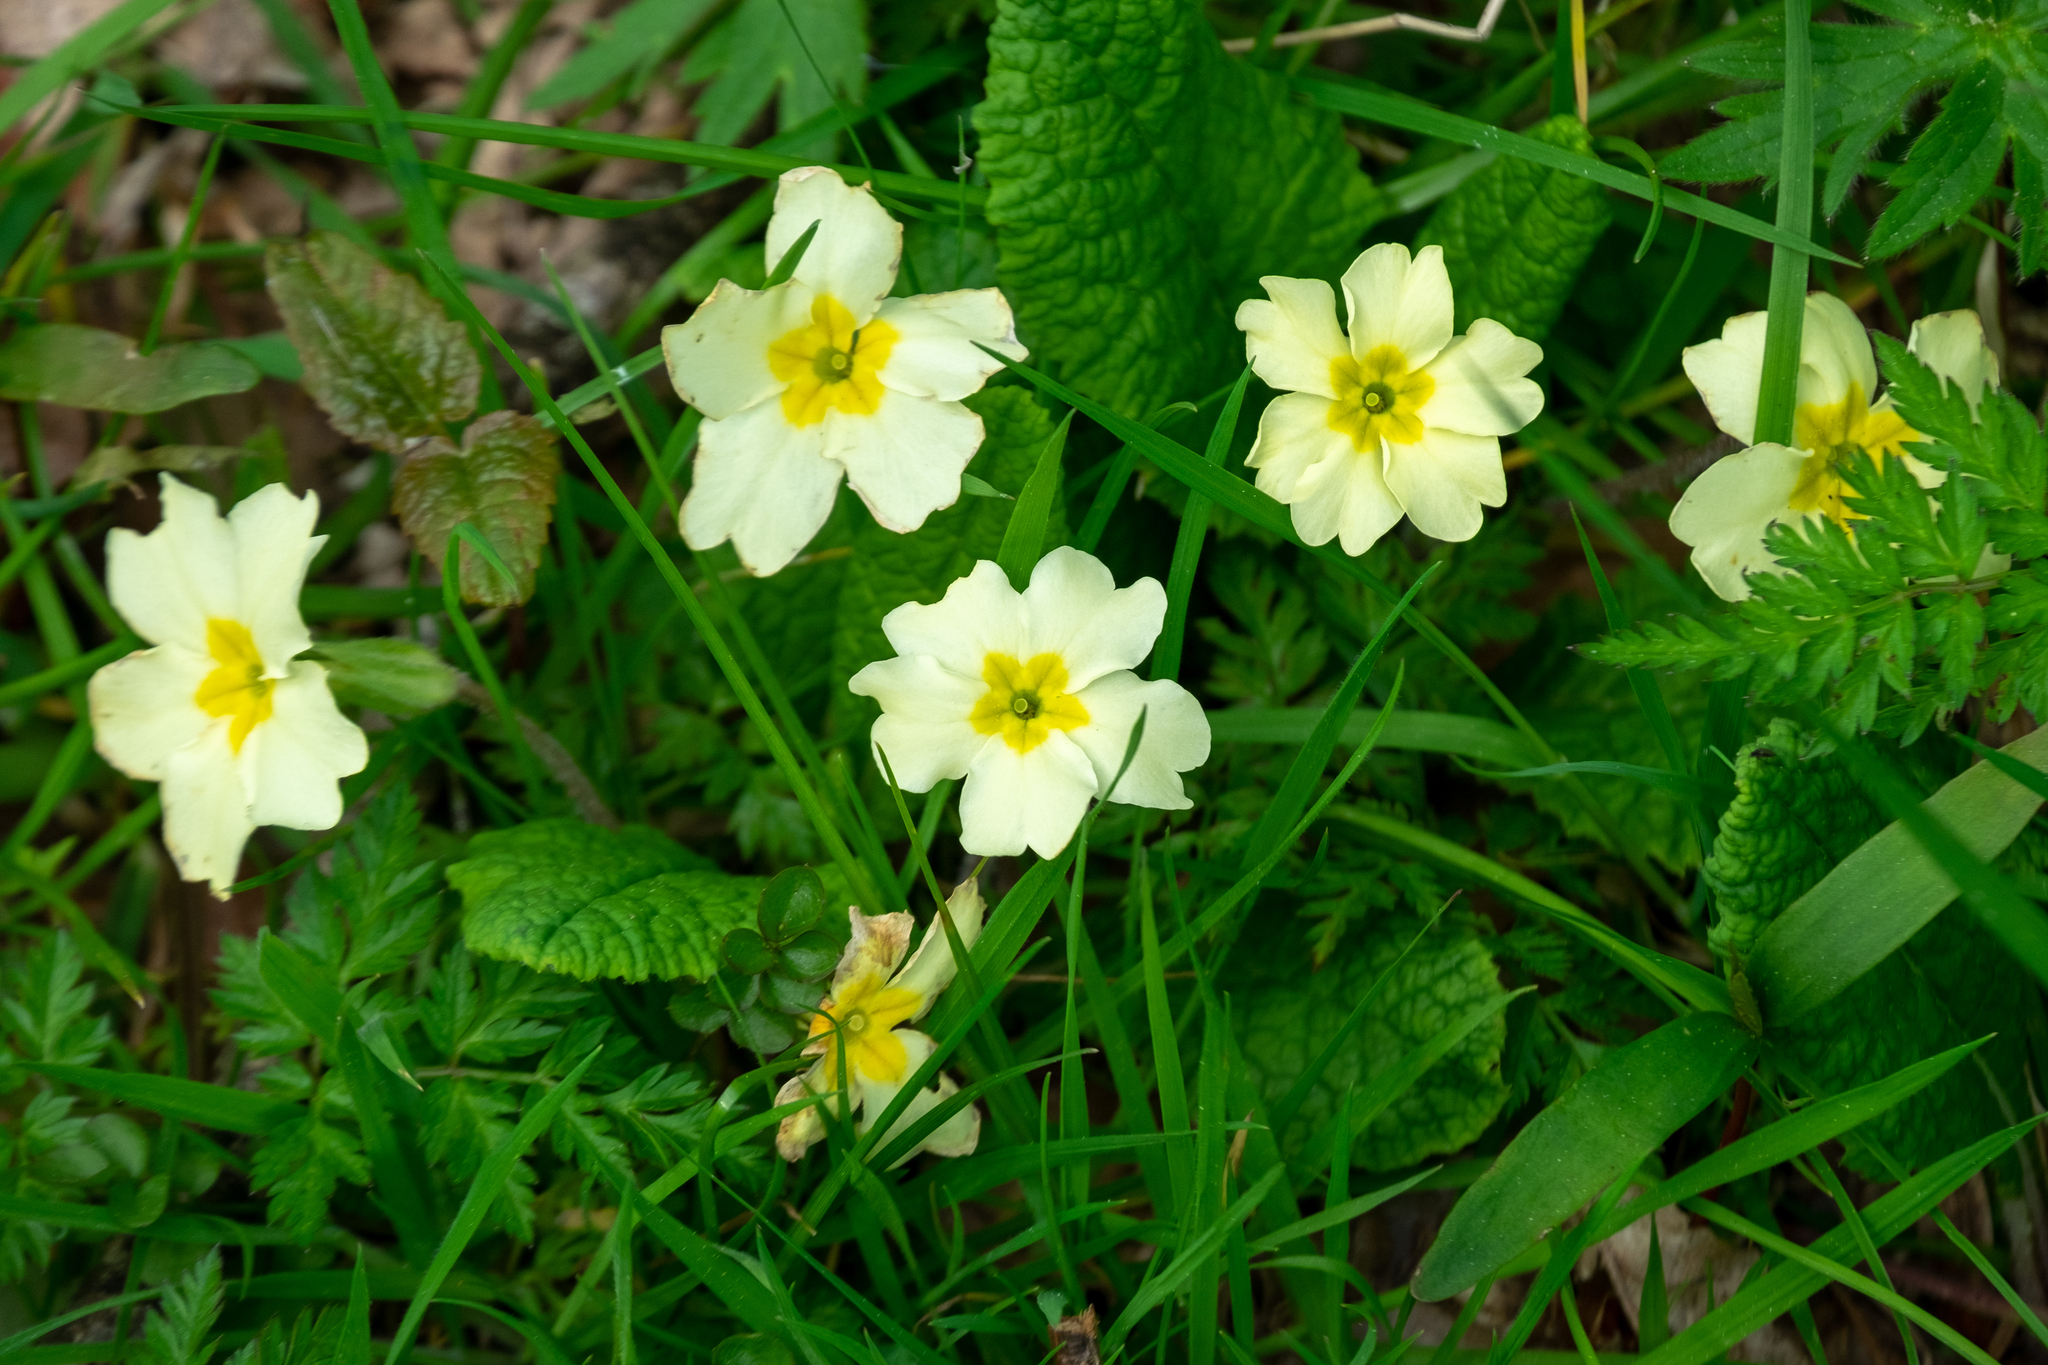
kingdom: Plantae
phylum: Tracheophyta
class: Magnoliopsida
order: Ericales
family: Primulaceae
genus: Primula
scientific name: Primula vulgaris
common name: Primrose
